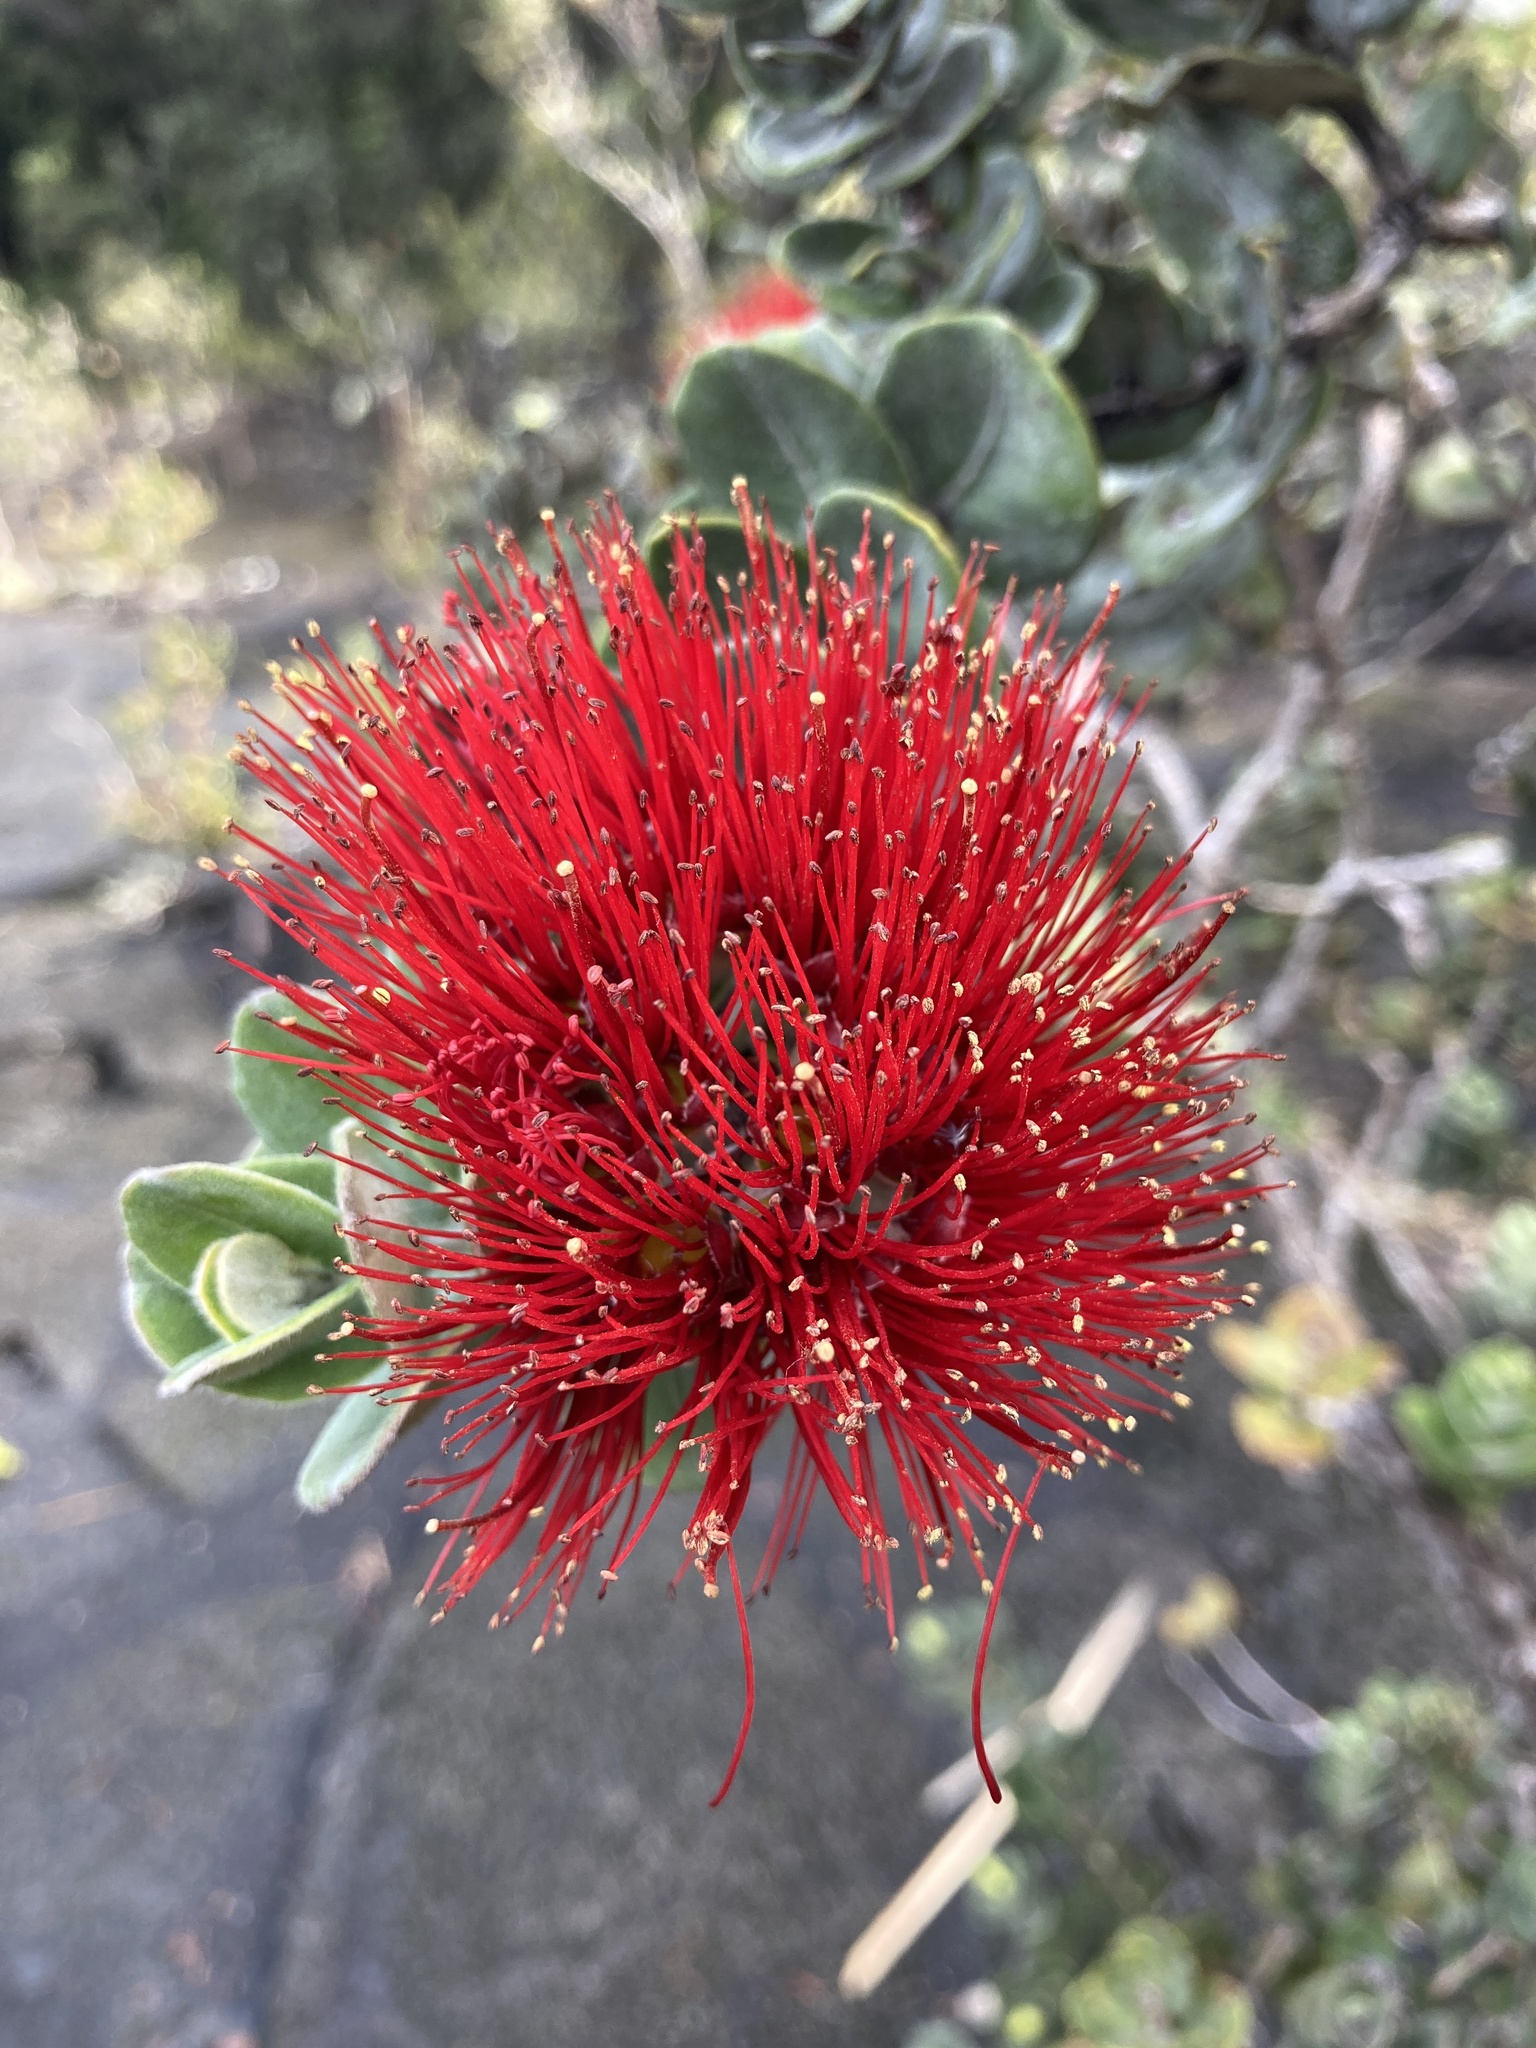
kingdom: Plantae
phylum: Tracheophyta
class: Magnoliopsida
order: Myrtales
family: Myrtaceae
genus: Metrosideros
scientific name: Metrosideros polymorpha
